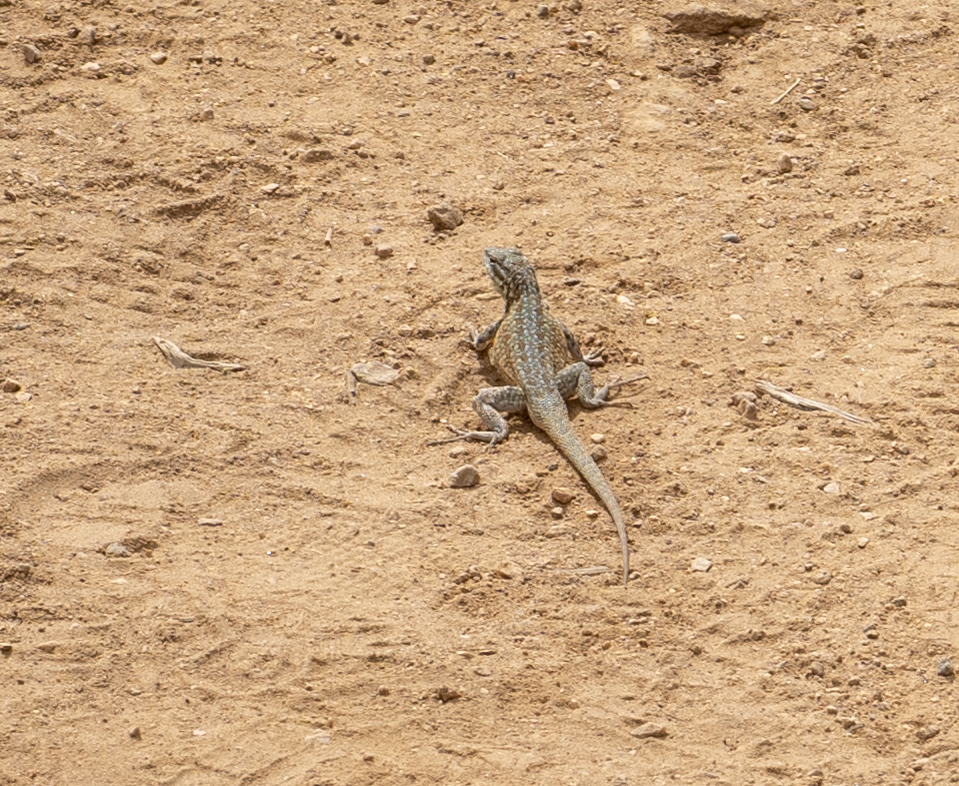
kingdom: Animalia
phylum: Chordata
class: Squamata
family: Phrynosomatidae
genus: Uta
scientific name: Uta stansburiana
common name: Side-blotched lizard
